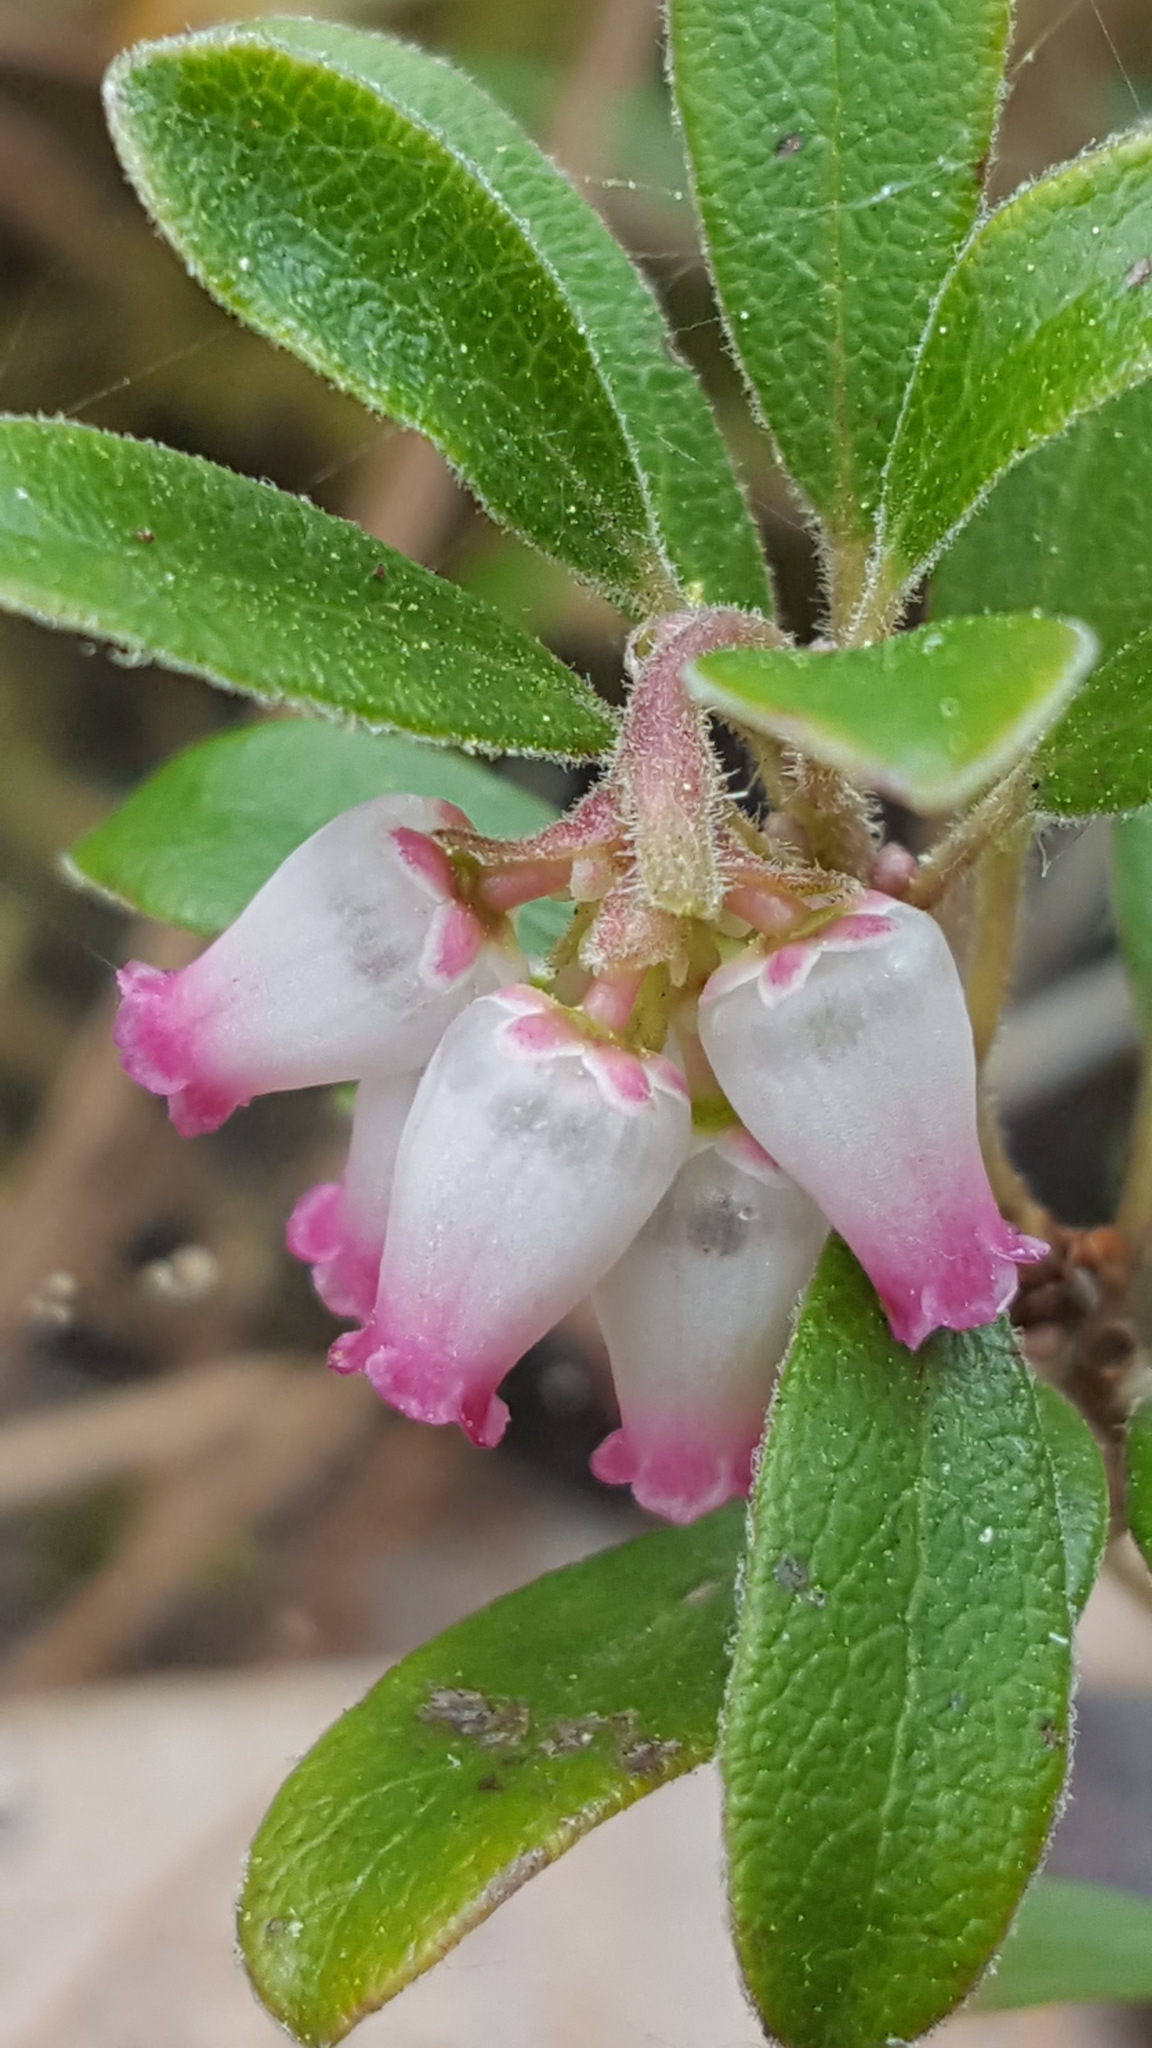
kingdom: Plantae
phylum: Tracheophyta
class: Magnoliopsida
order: Ericales
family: Ericaceae
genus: Arctostaphylos
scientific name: Arctostaphylos uva-ursi
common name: Bearberry
